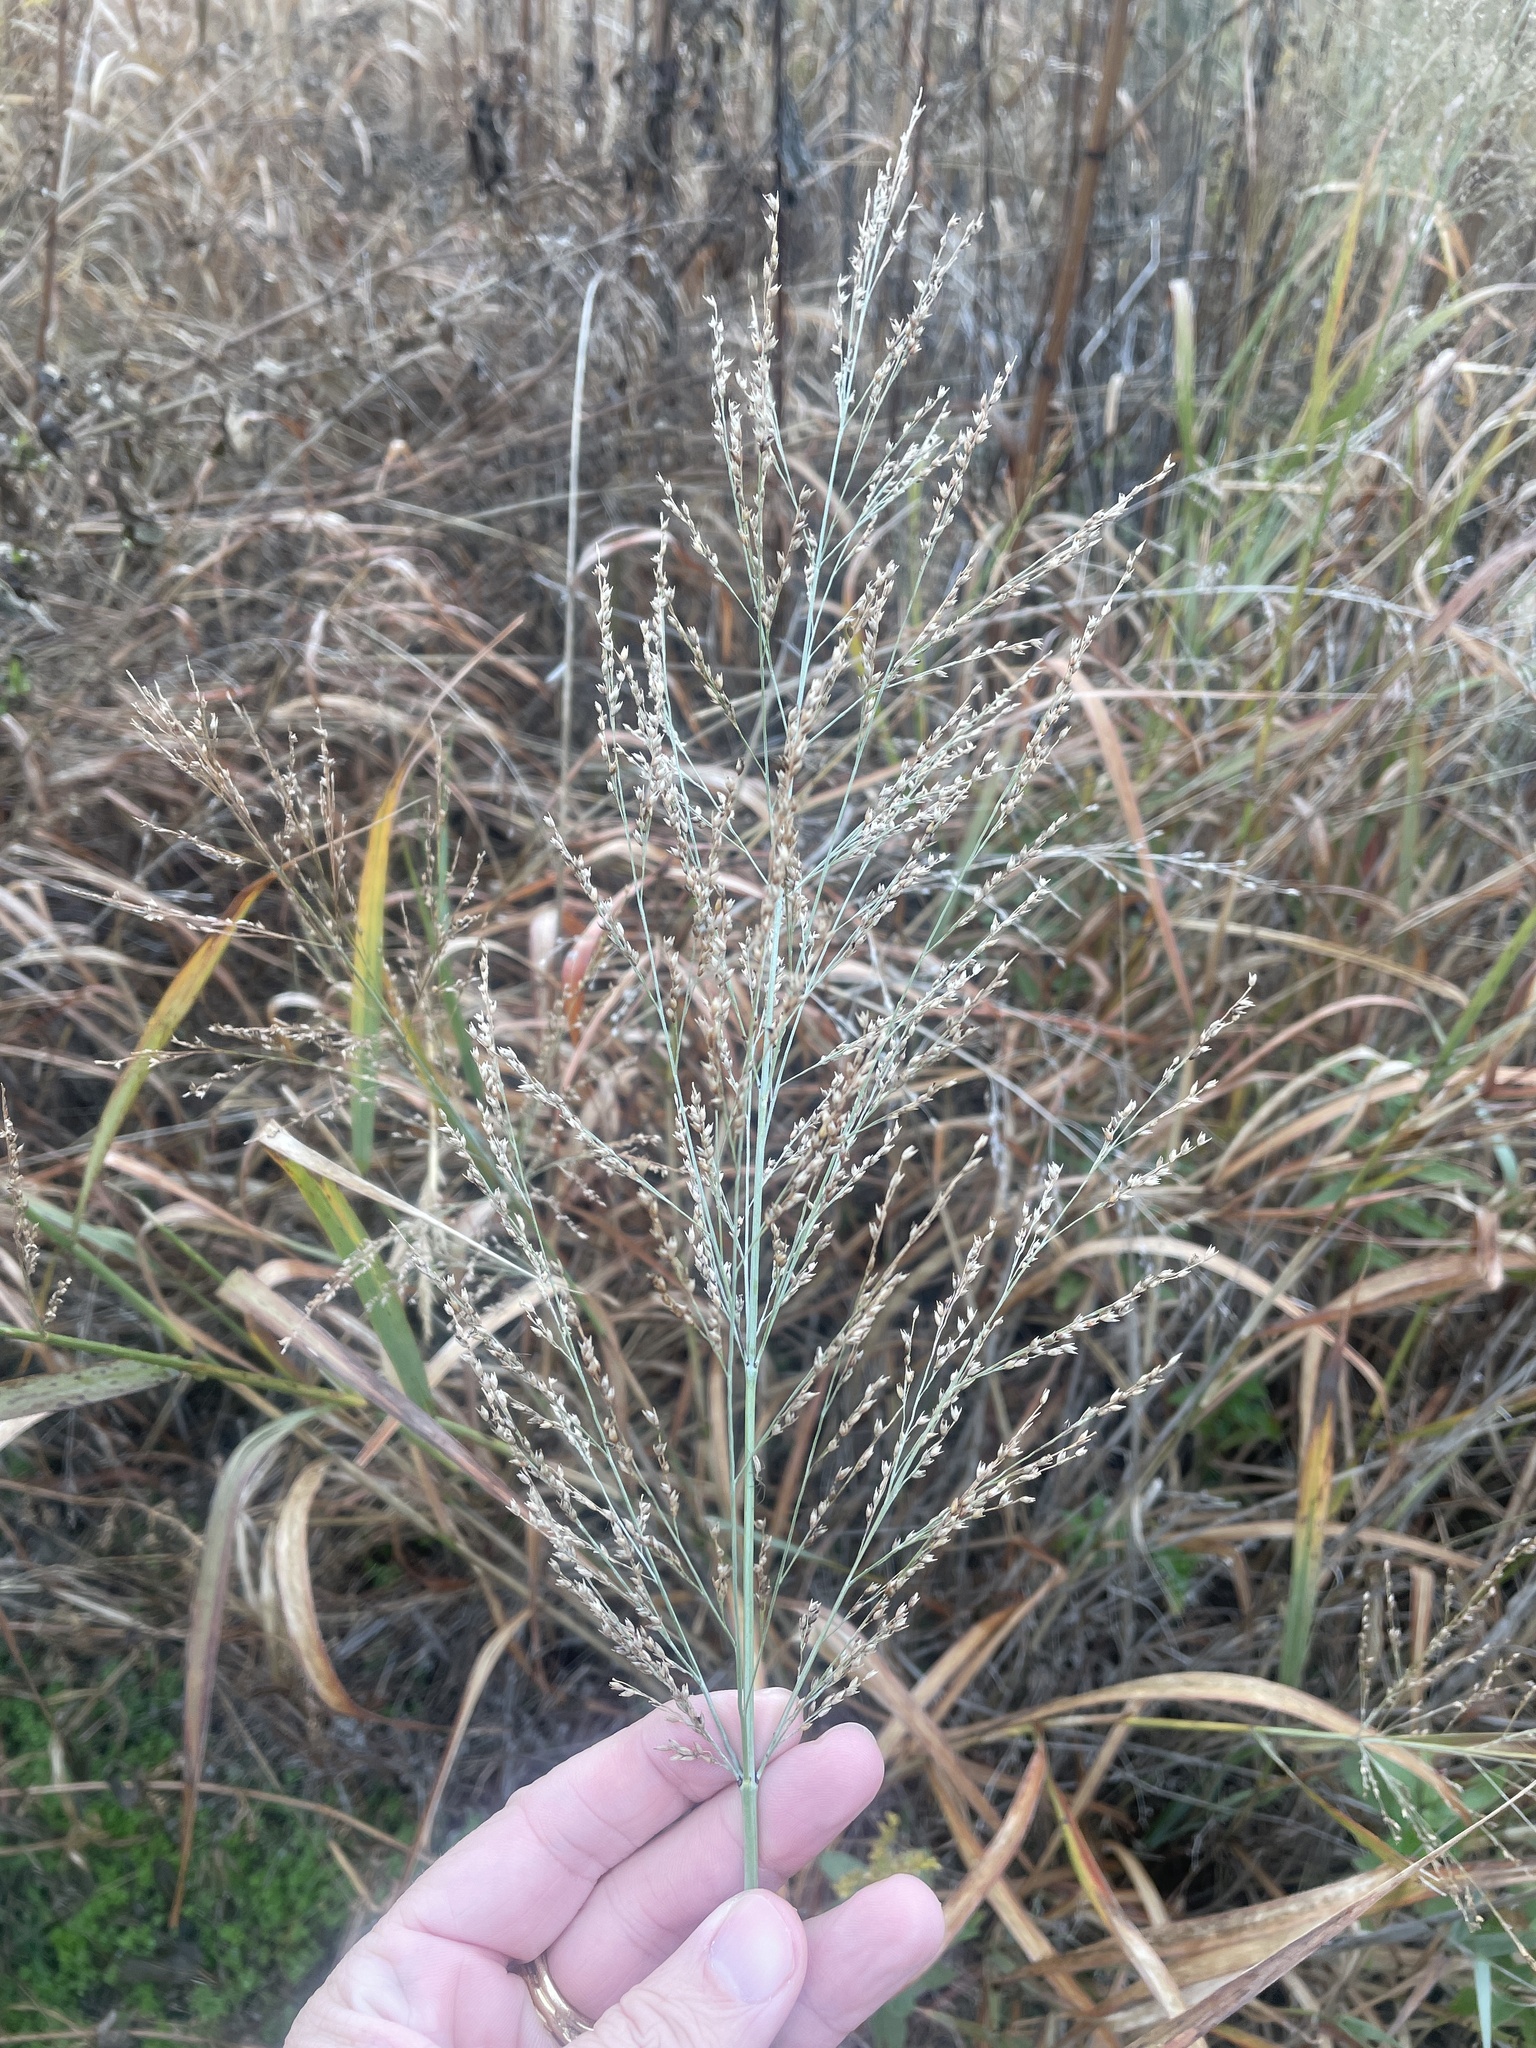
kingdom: Plantae
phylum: Tracheophyta
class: Liliopsida
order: Poales
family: Poaceae
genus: Panicum
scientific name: Panicum virgatum
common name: Switchgrass
